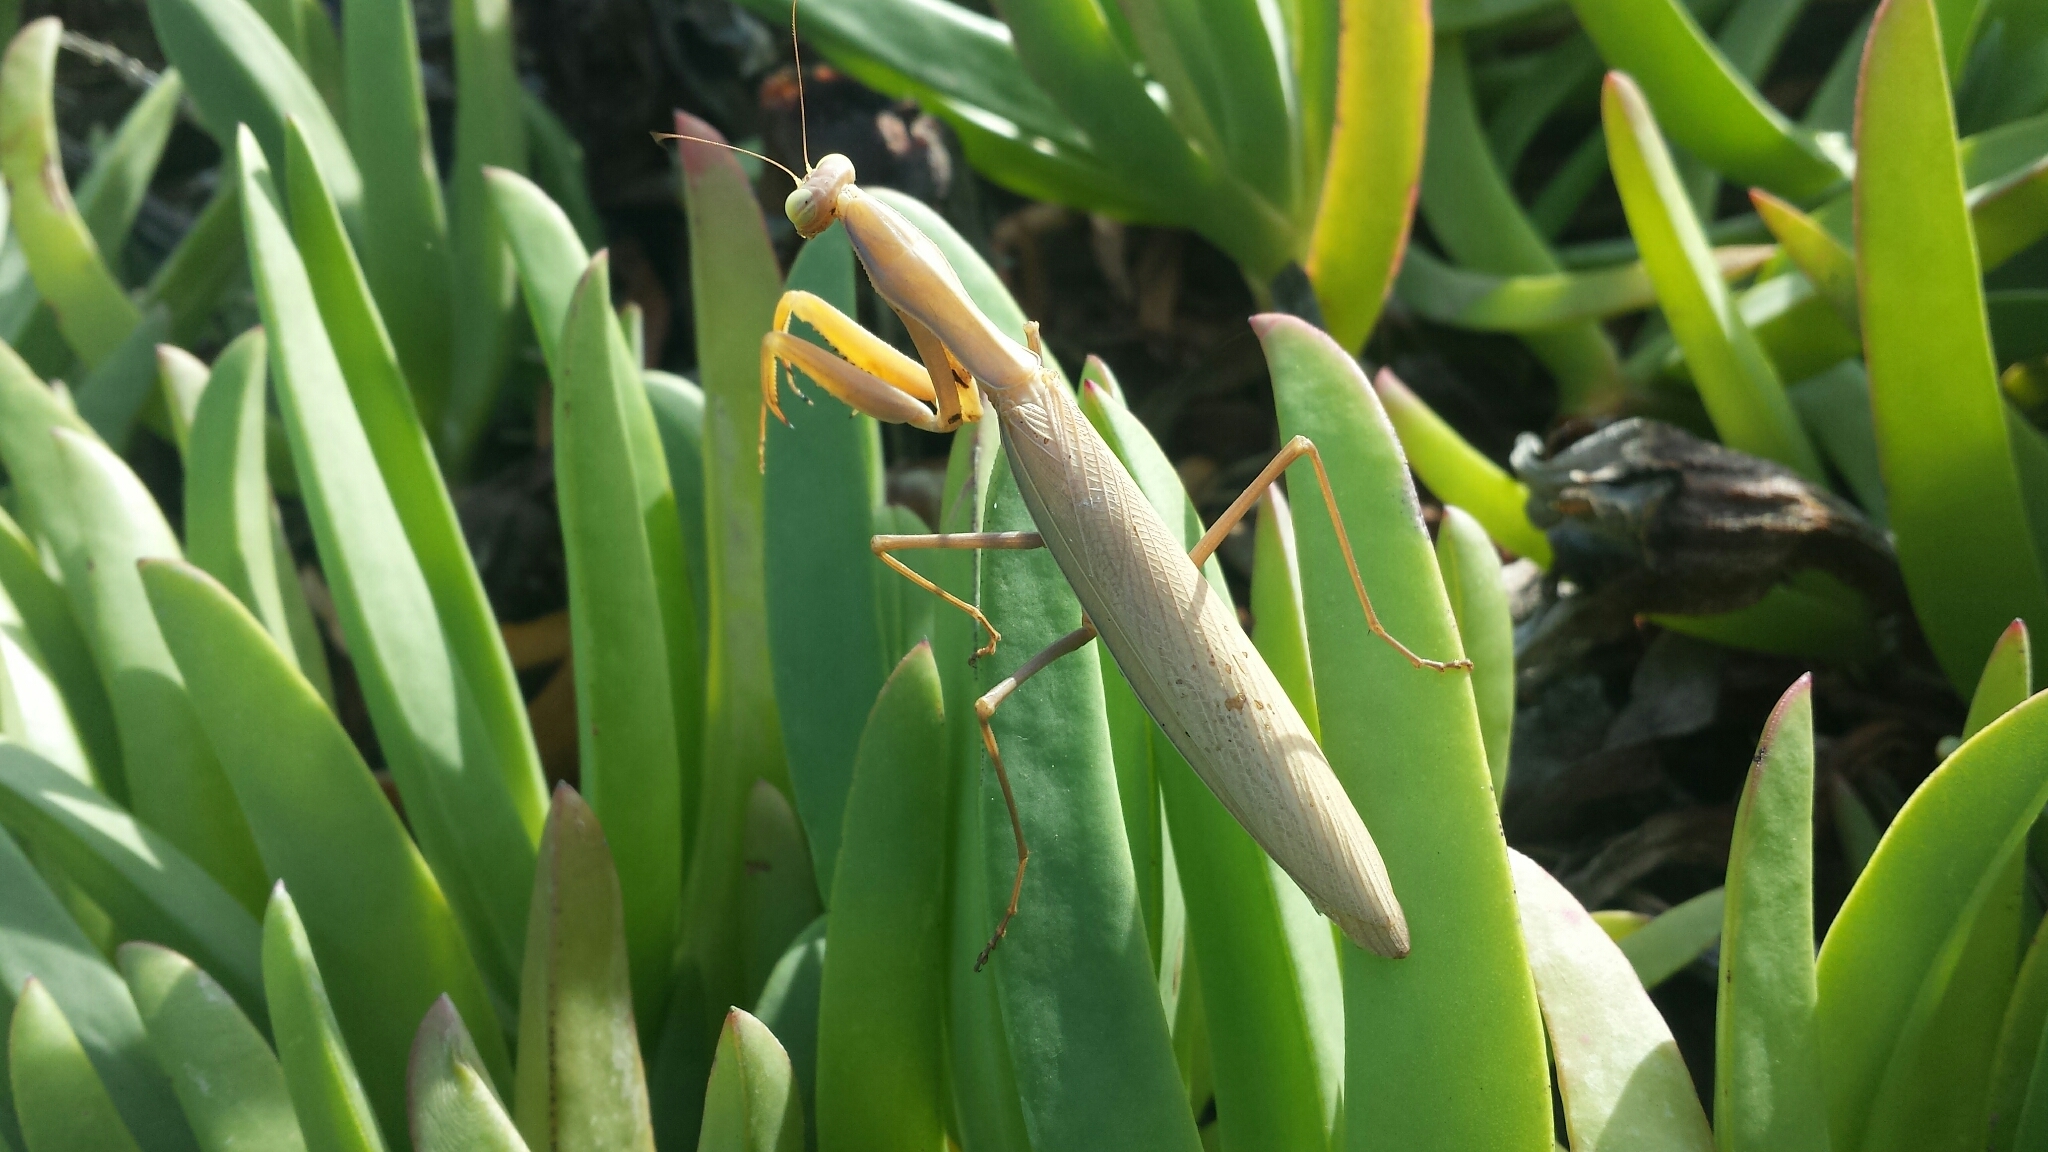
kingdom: Animalia
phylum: Arthropoda
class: Insecta
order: Mantodea
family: Mantidae
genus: Mantis
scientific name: Mantis religiosa
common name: Praying mantis
